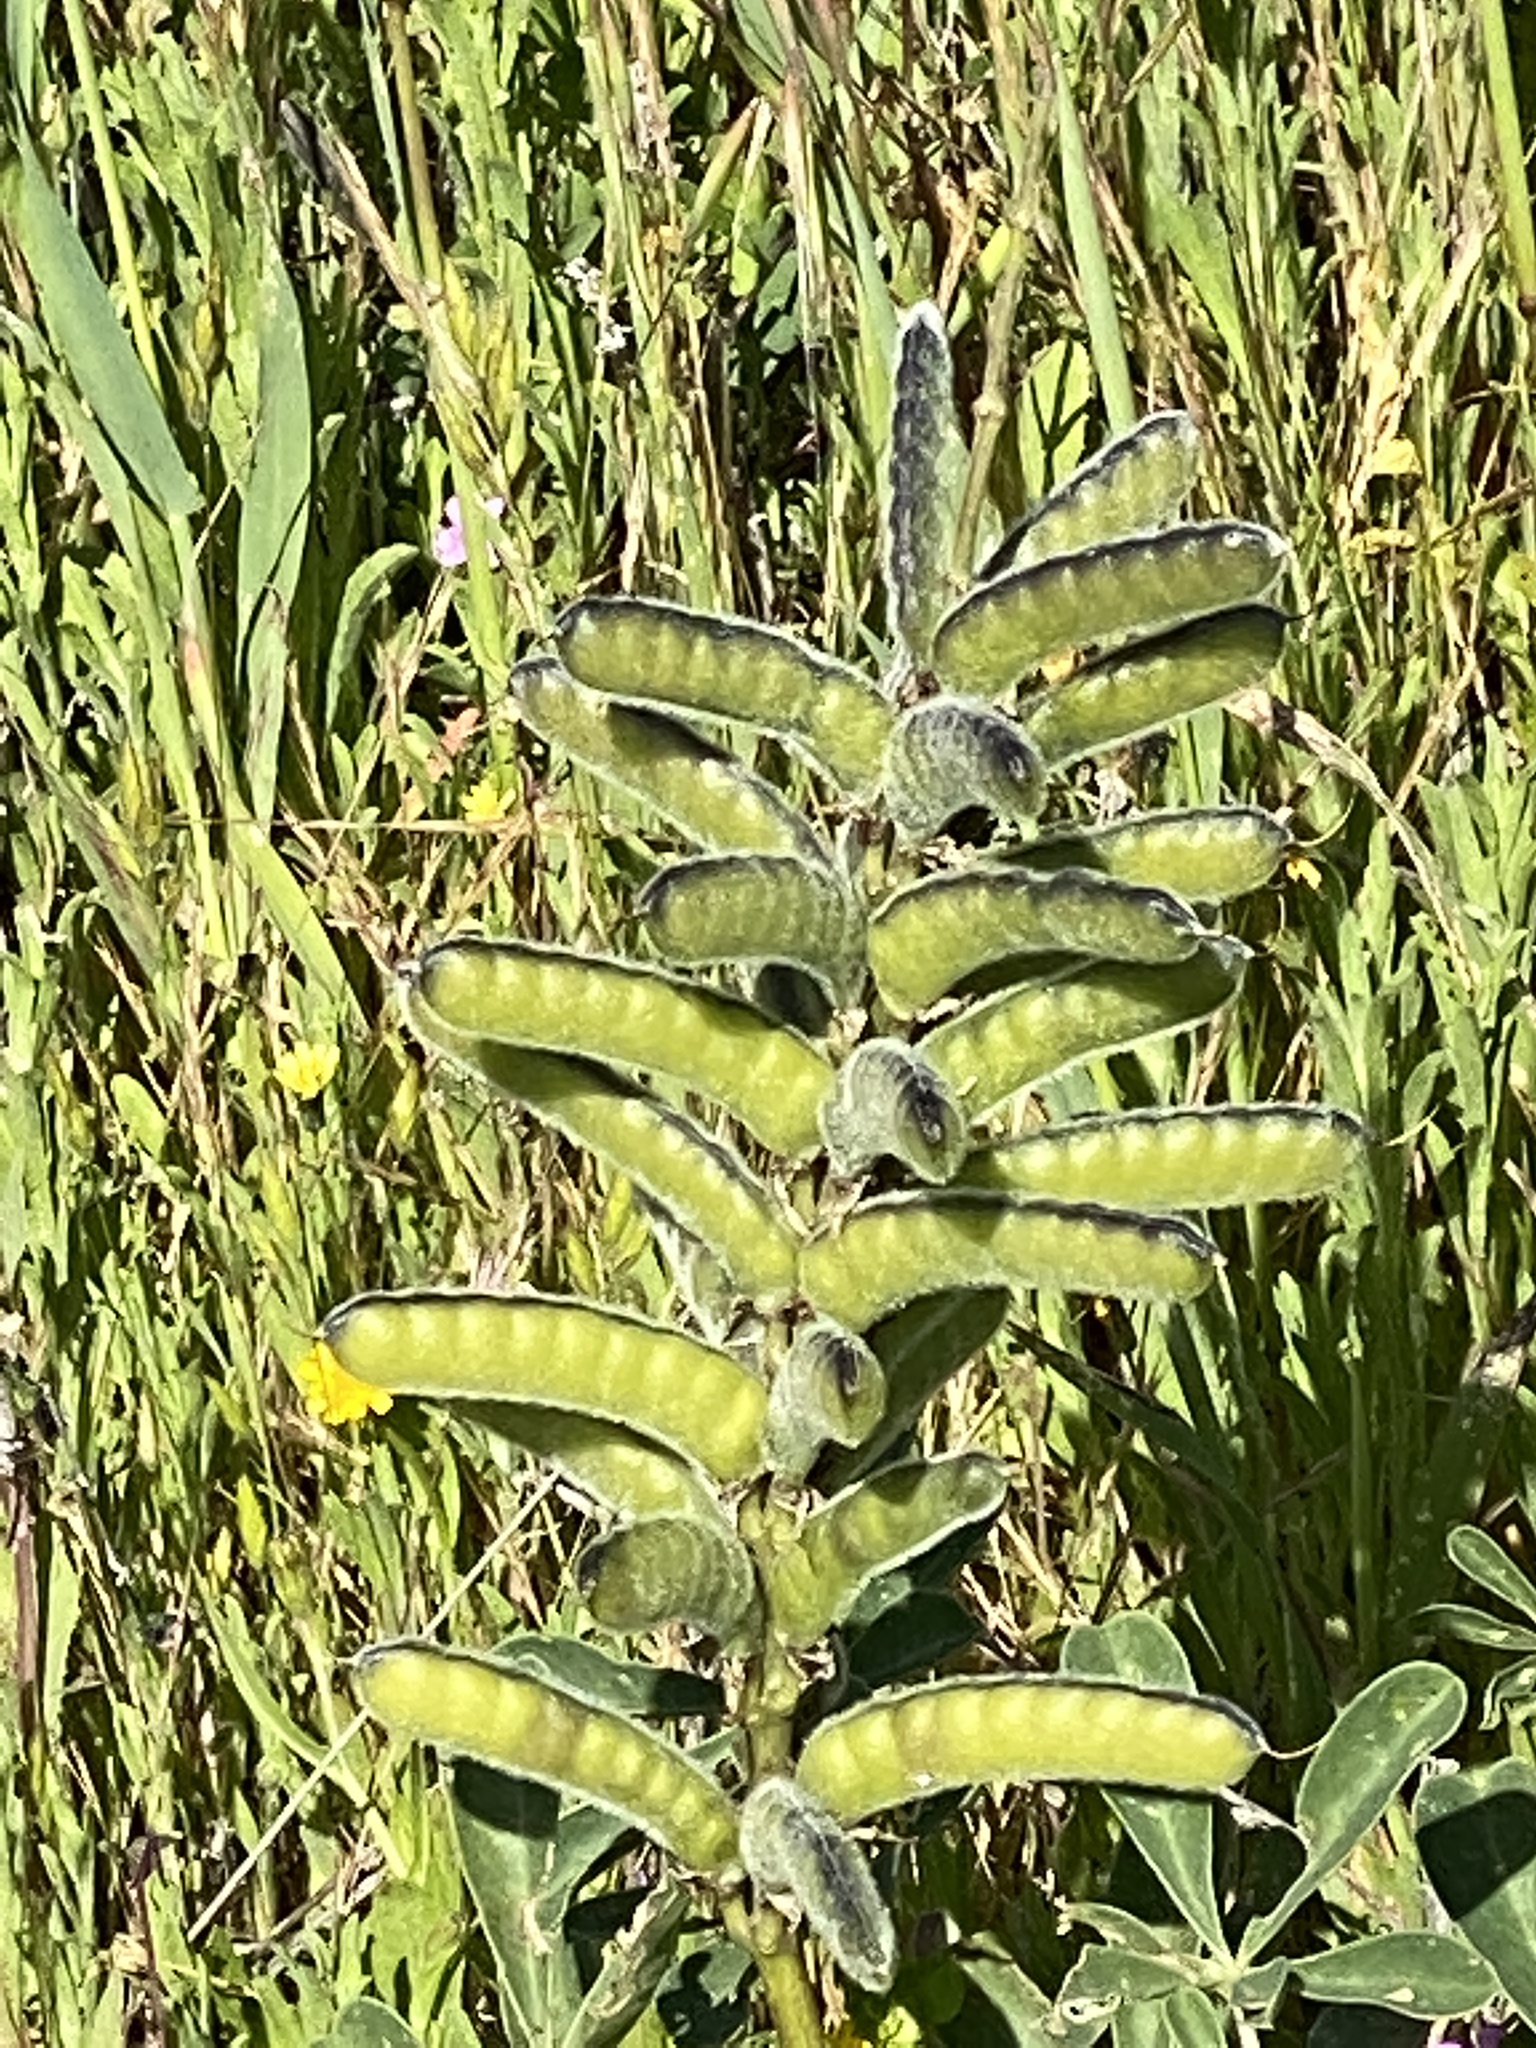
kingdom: Plantae
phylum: Tracheophyta
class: Magnoliopsida
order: Fabales
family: Fabaceae
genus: Lupinus
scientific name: Lupinus succulentus
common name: Arroyo lupine
